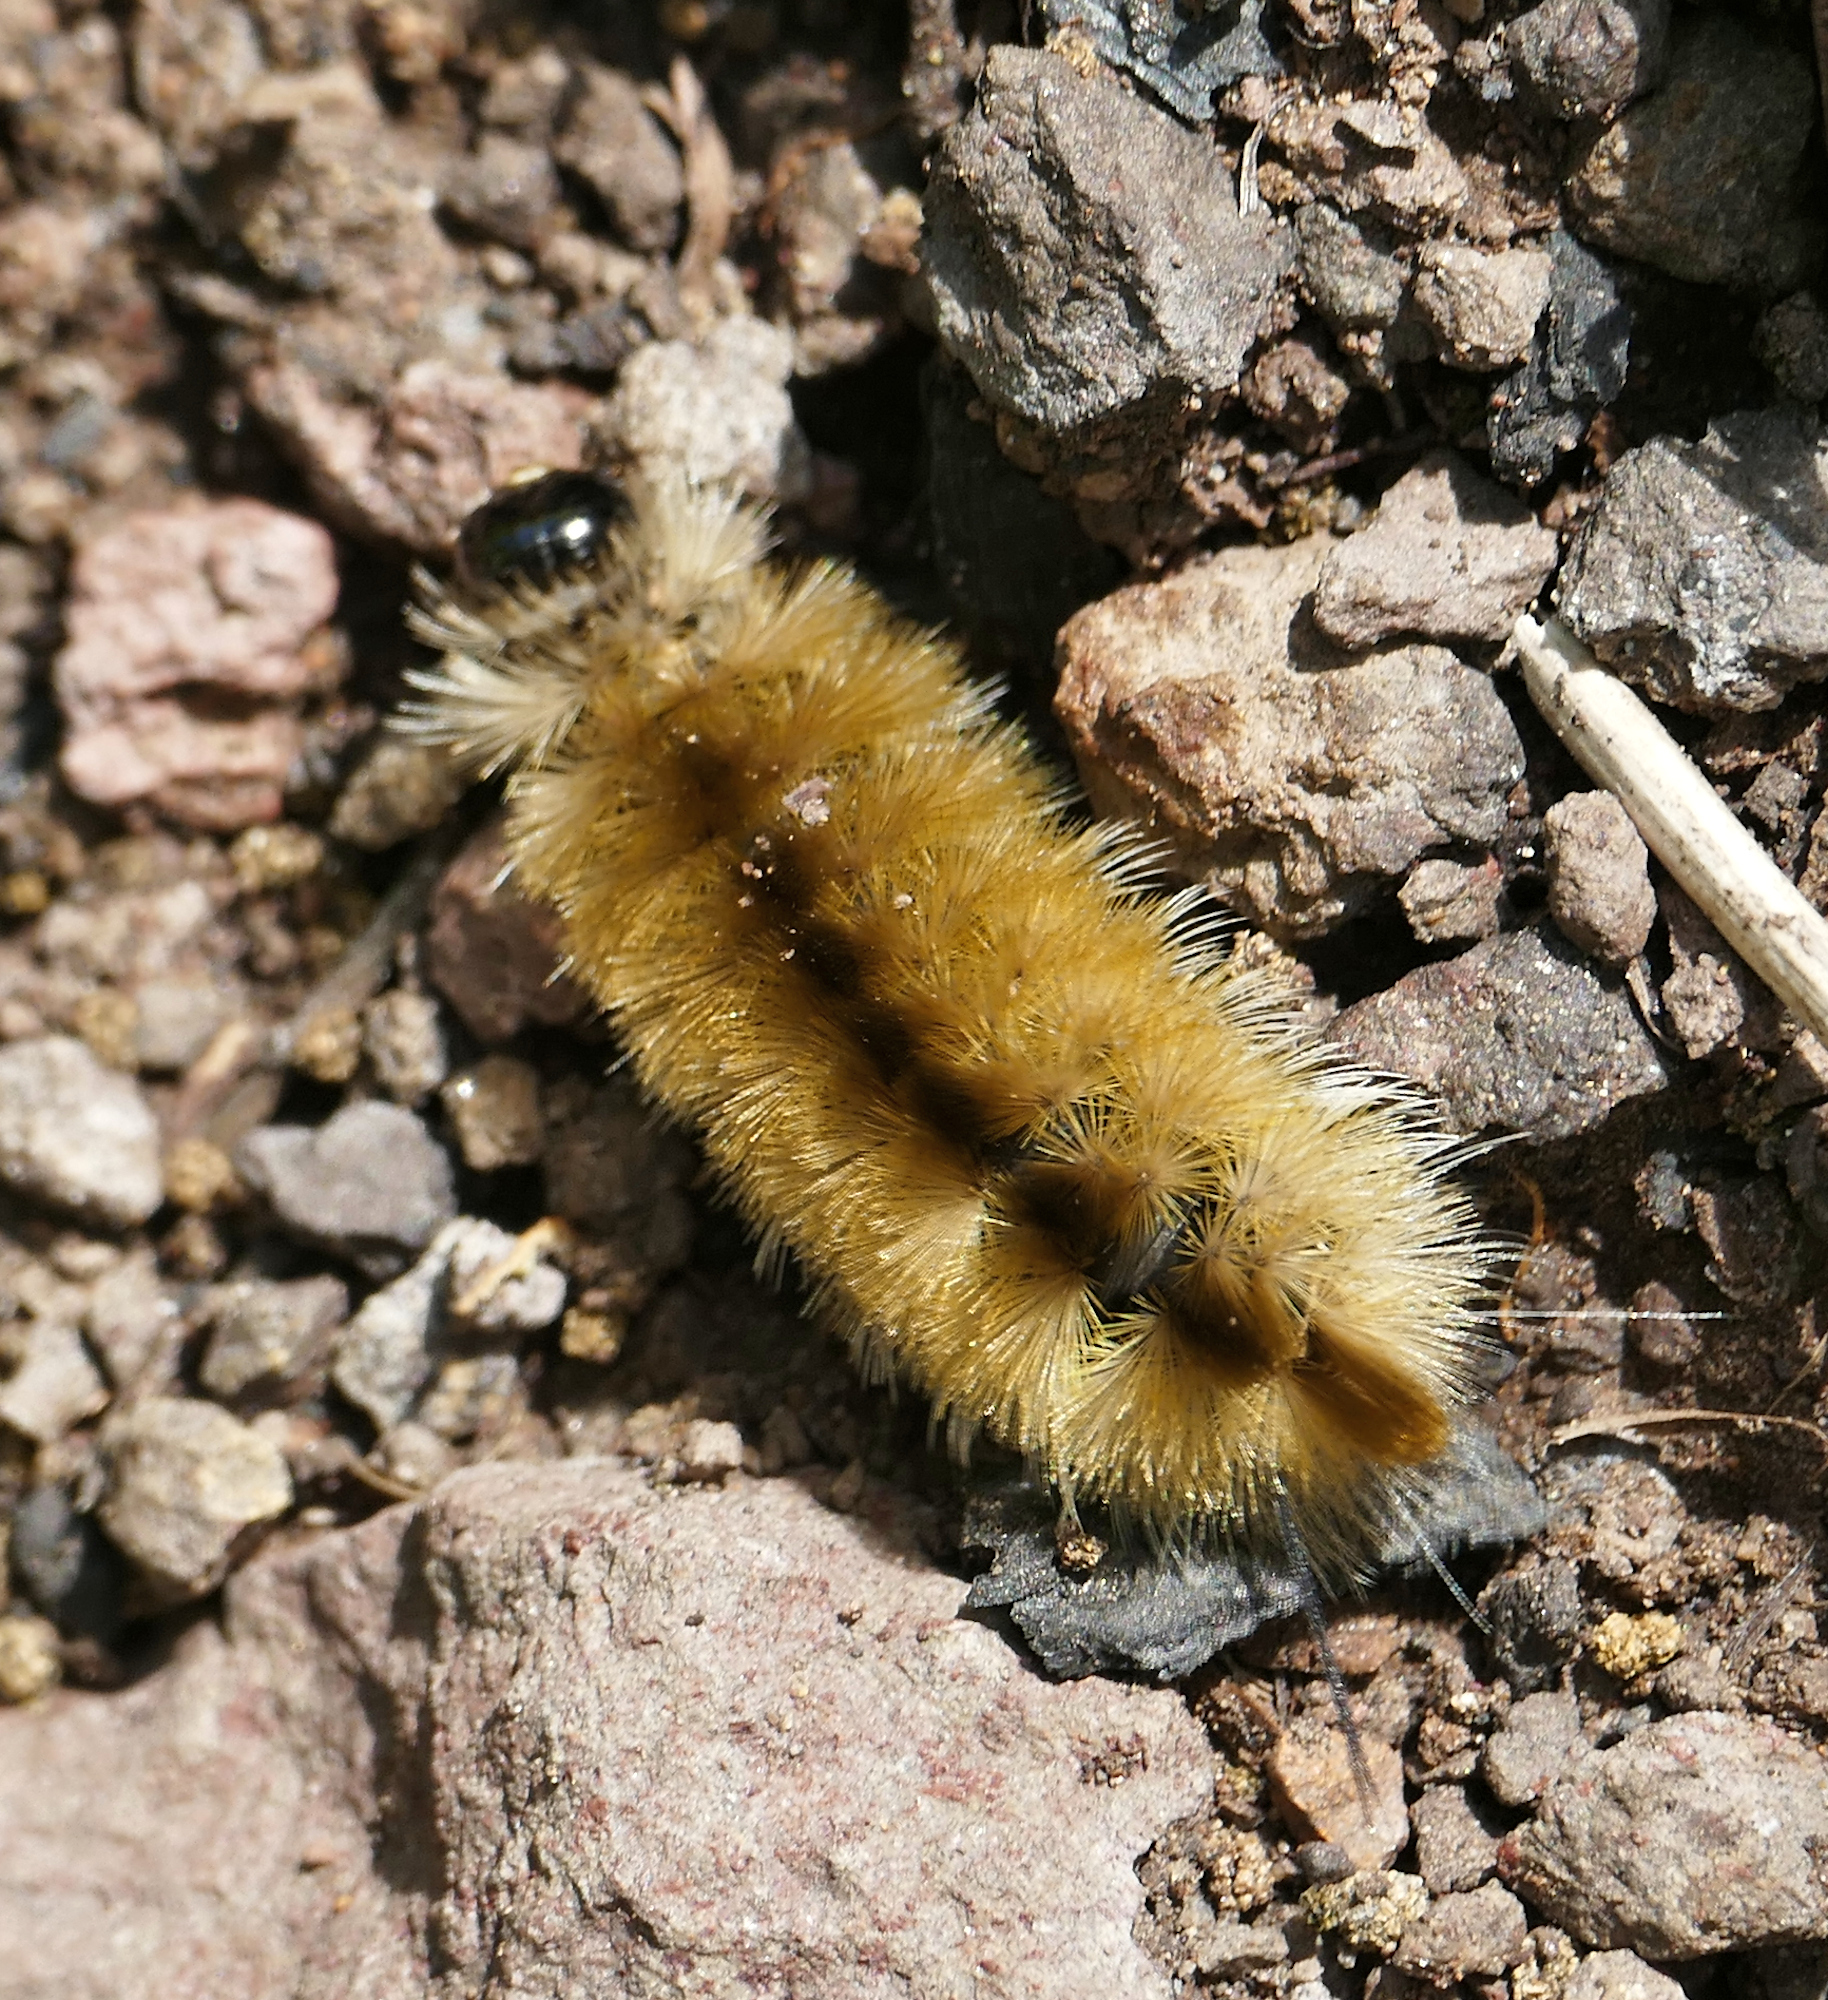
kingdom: Animalia
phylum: Arthropoda
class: Insecta
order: Lepidoptera
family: Erebidae
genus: Halysidota
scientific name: Halysidota tessellaris
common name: Banded tussock moth
